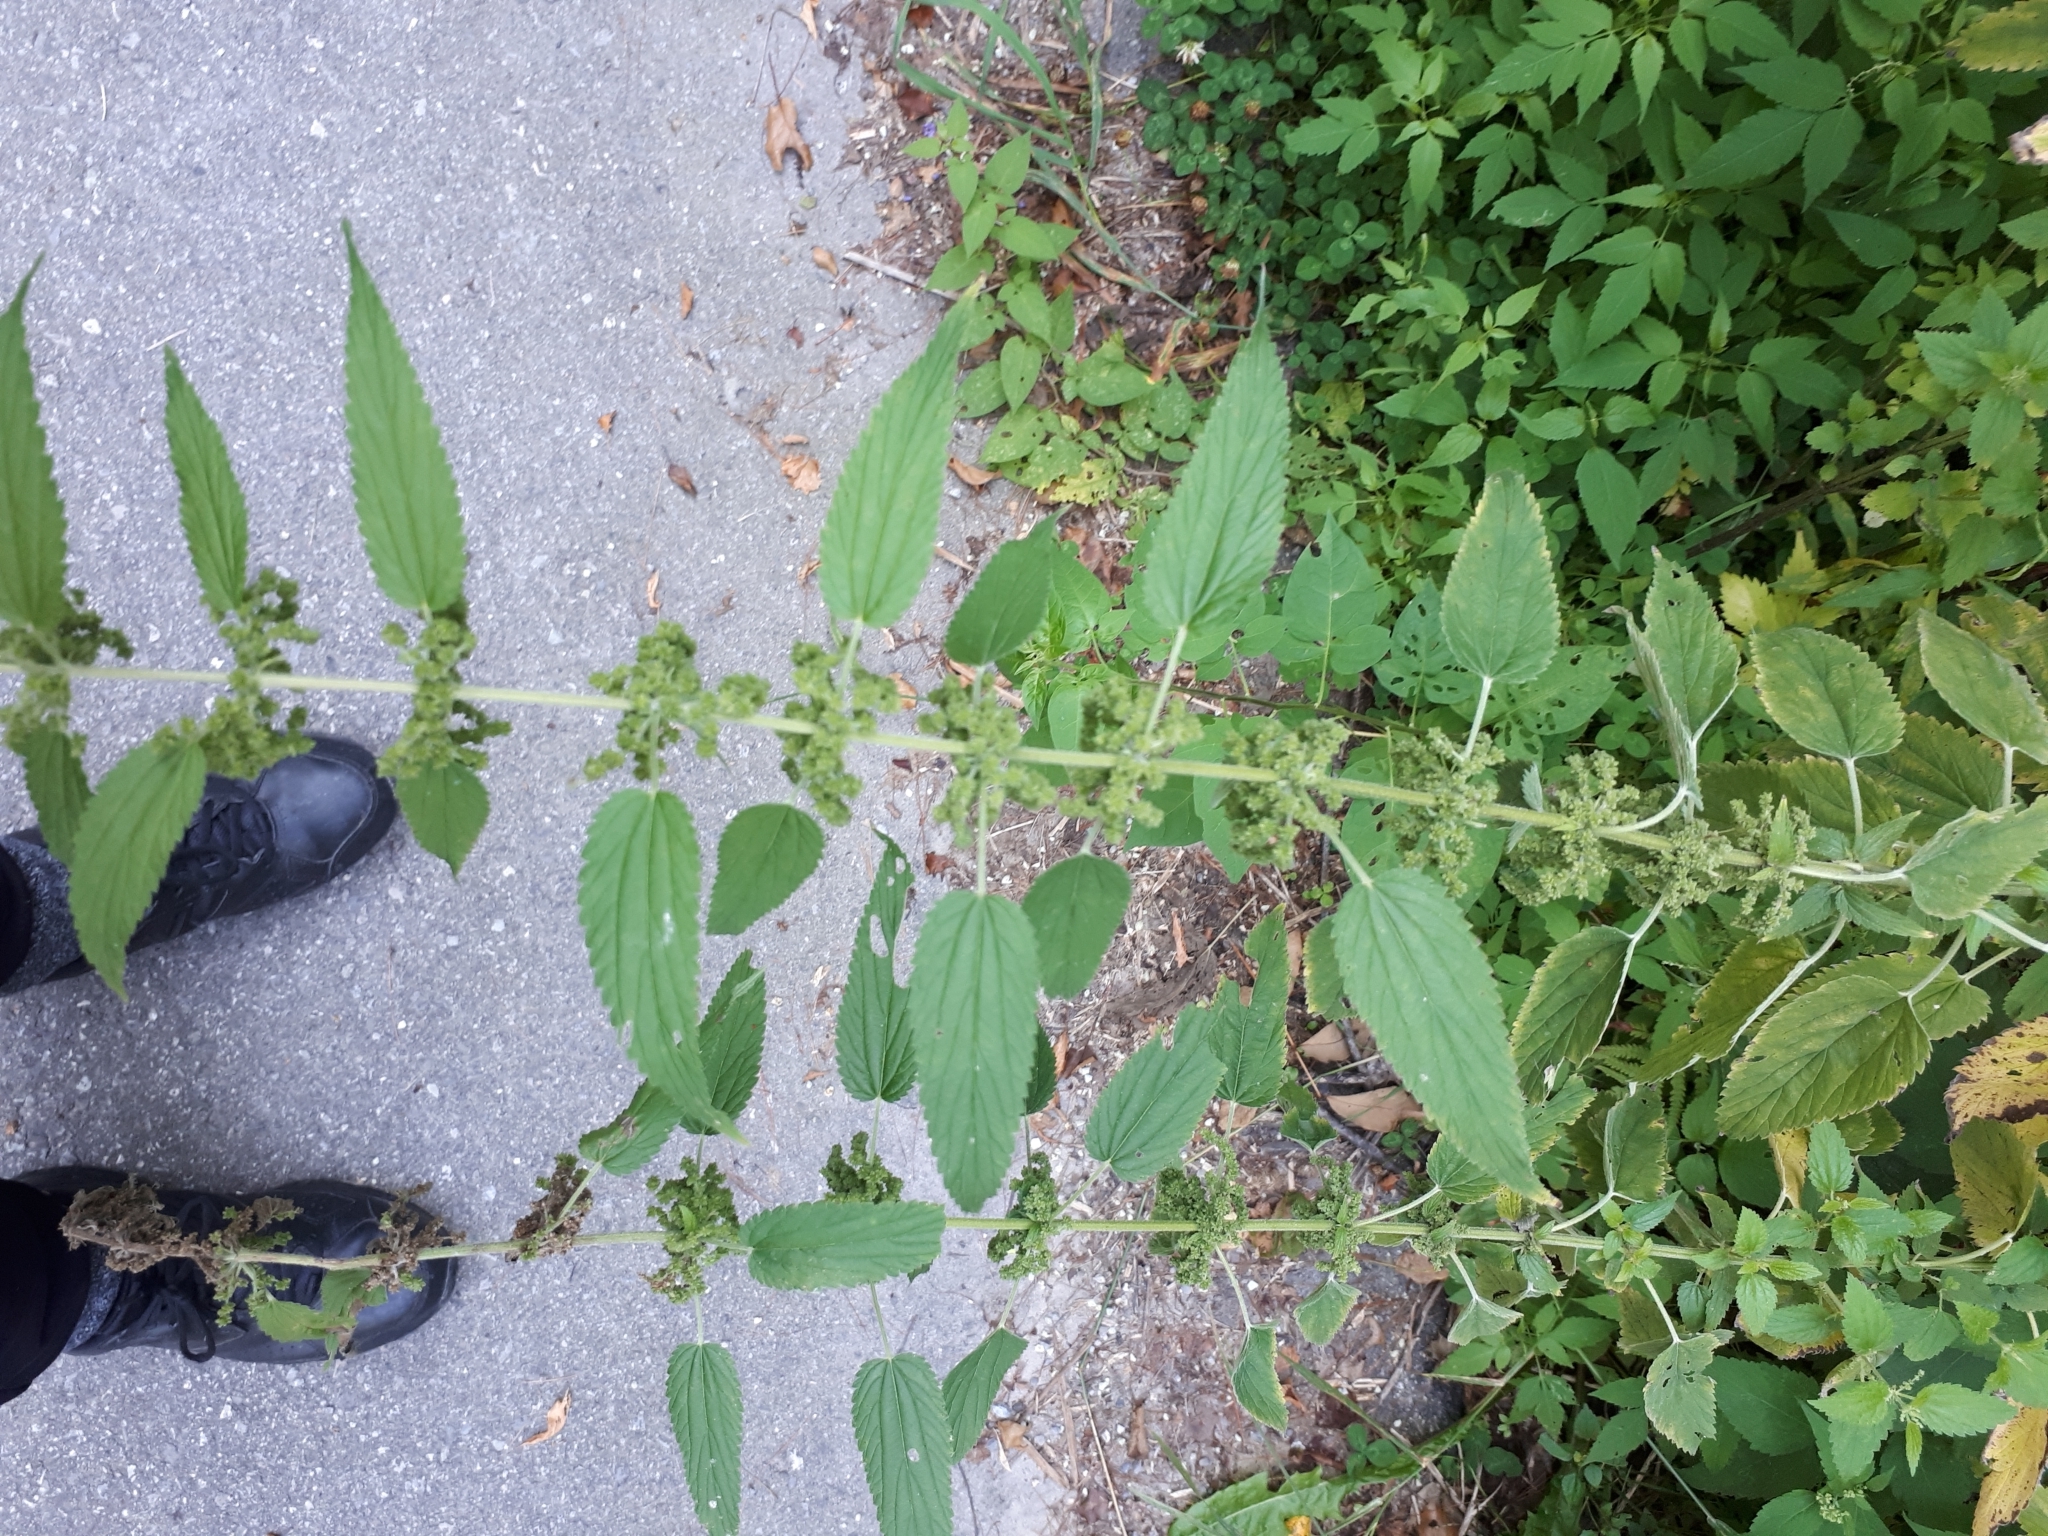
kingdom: Plantae
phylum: Tracheophyta
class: Magnoliopsida
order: Rosales
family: Urticaceae
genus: Urtica
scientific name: Urtica dioica
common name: Common nettle
